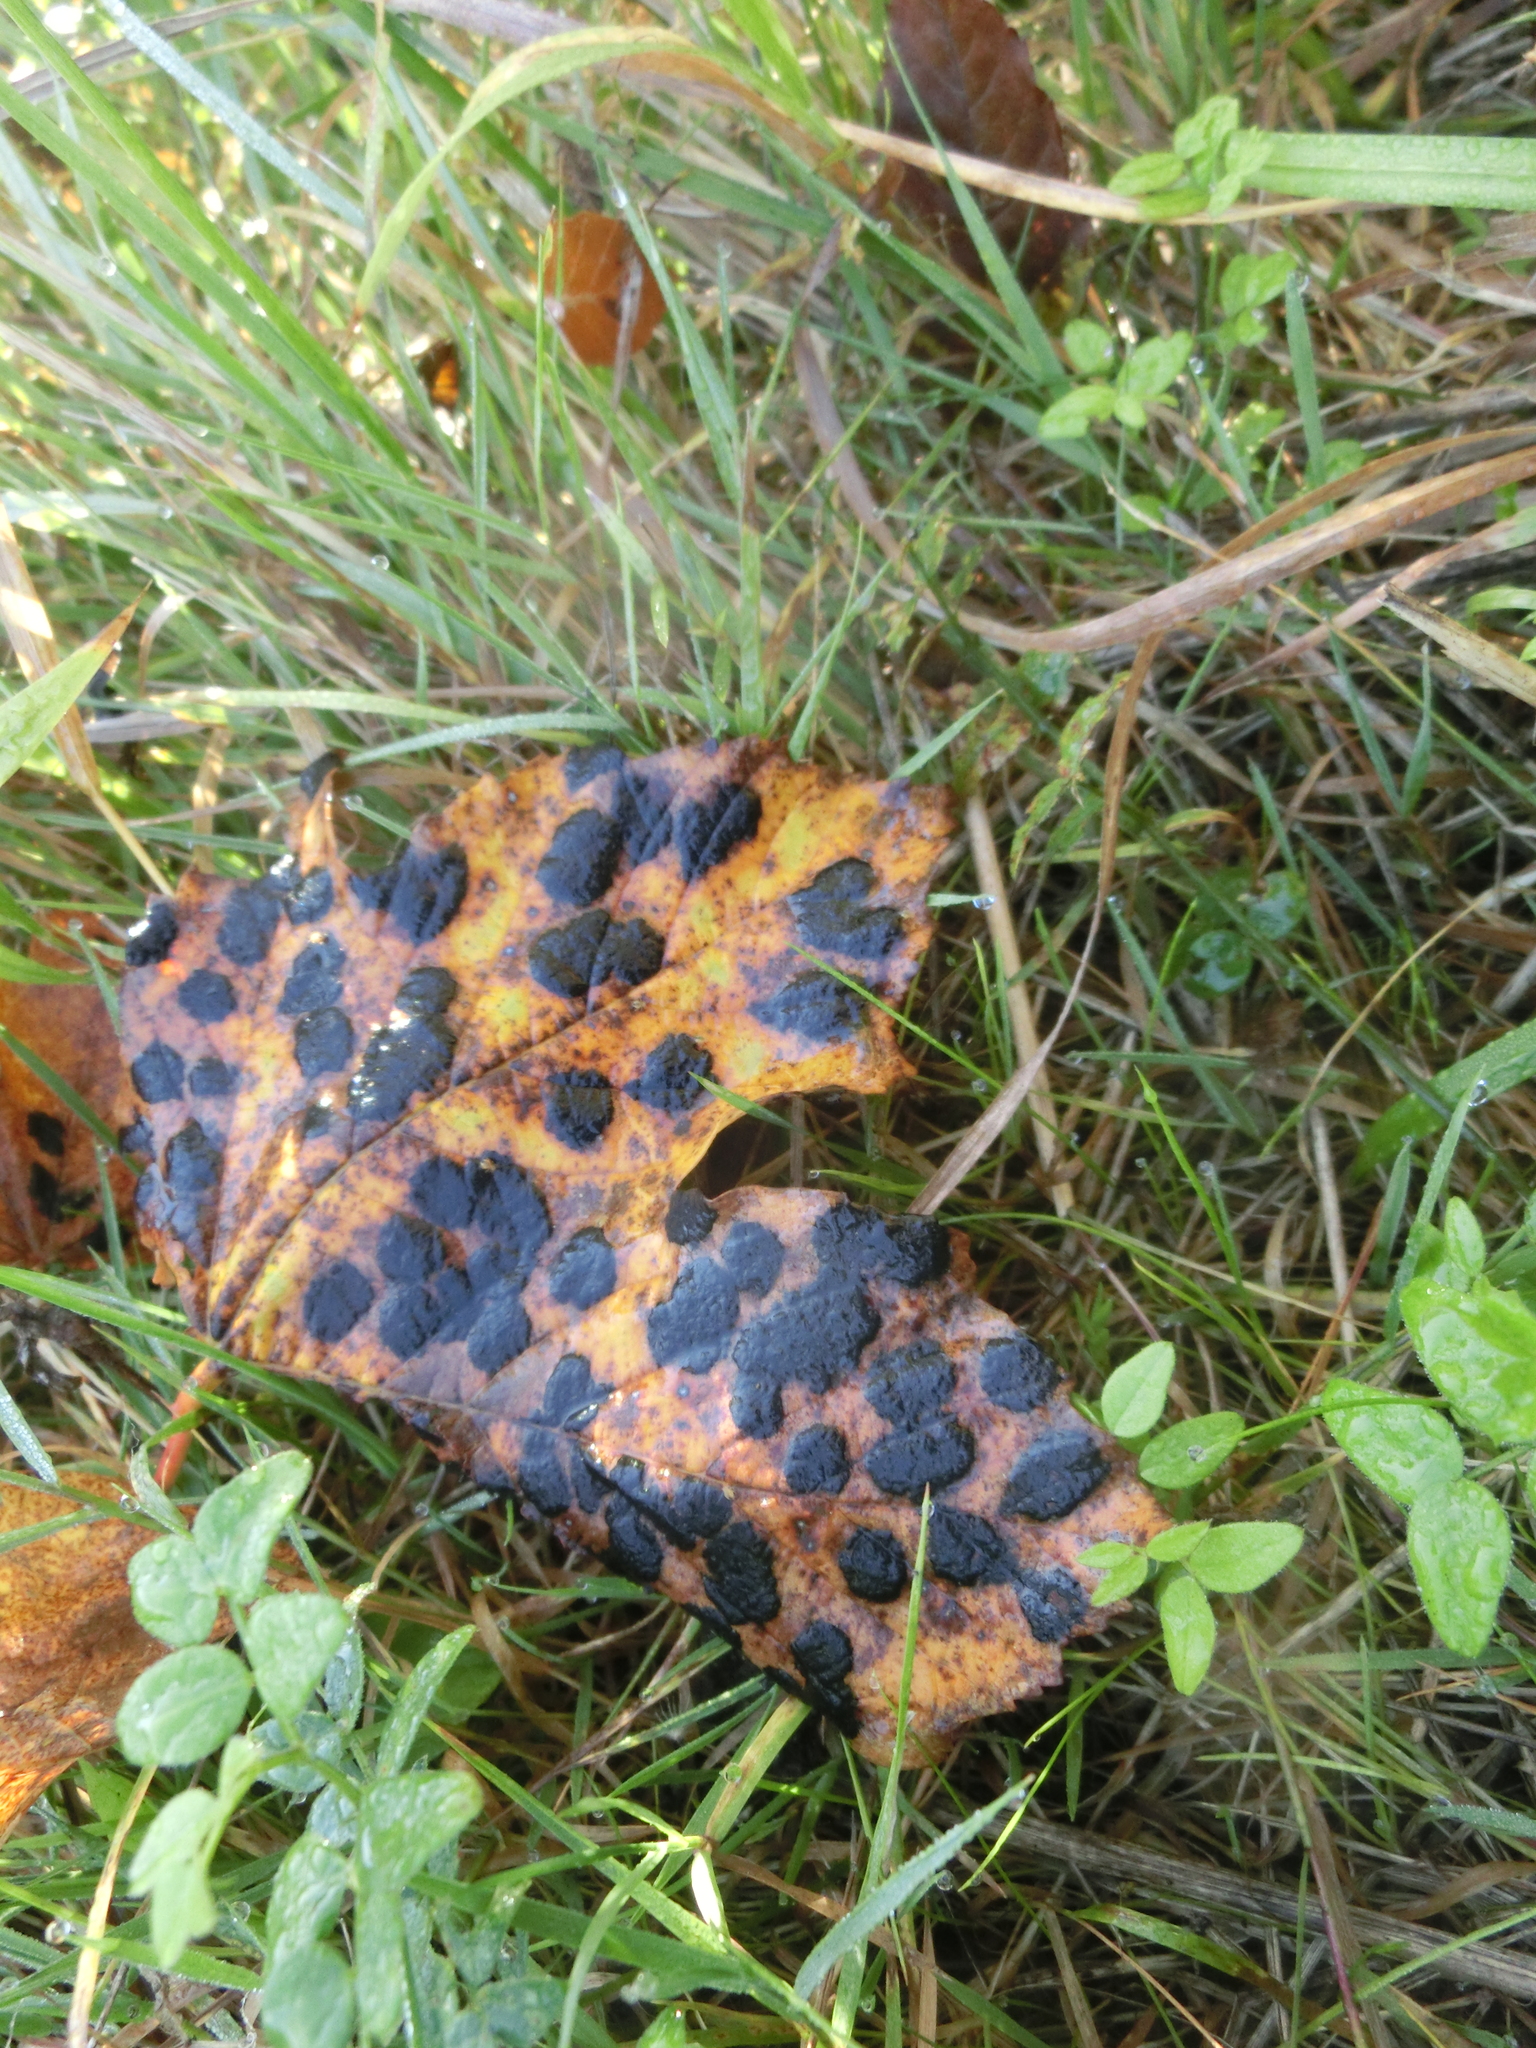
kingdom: Fungi
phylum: Ascomycota
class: Leotiomycetes
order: Rhytismatales
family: Rhytismataceae
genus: Rhytisma
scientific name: Rhytisma acerinum
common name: European tar spot
